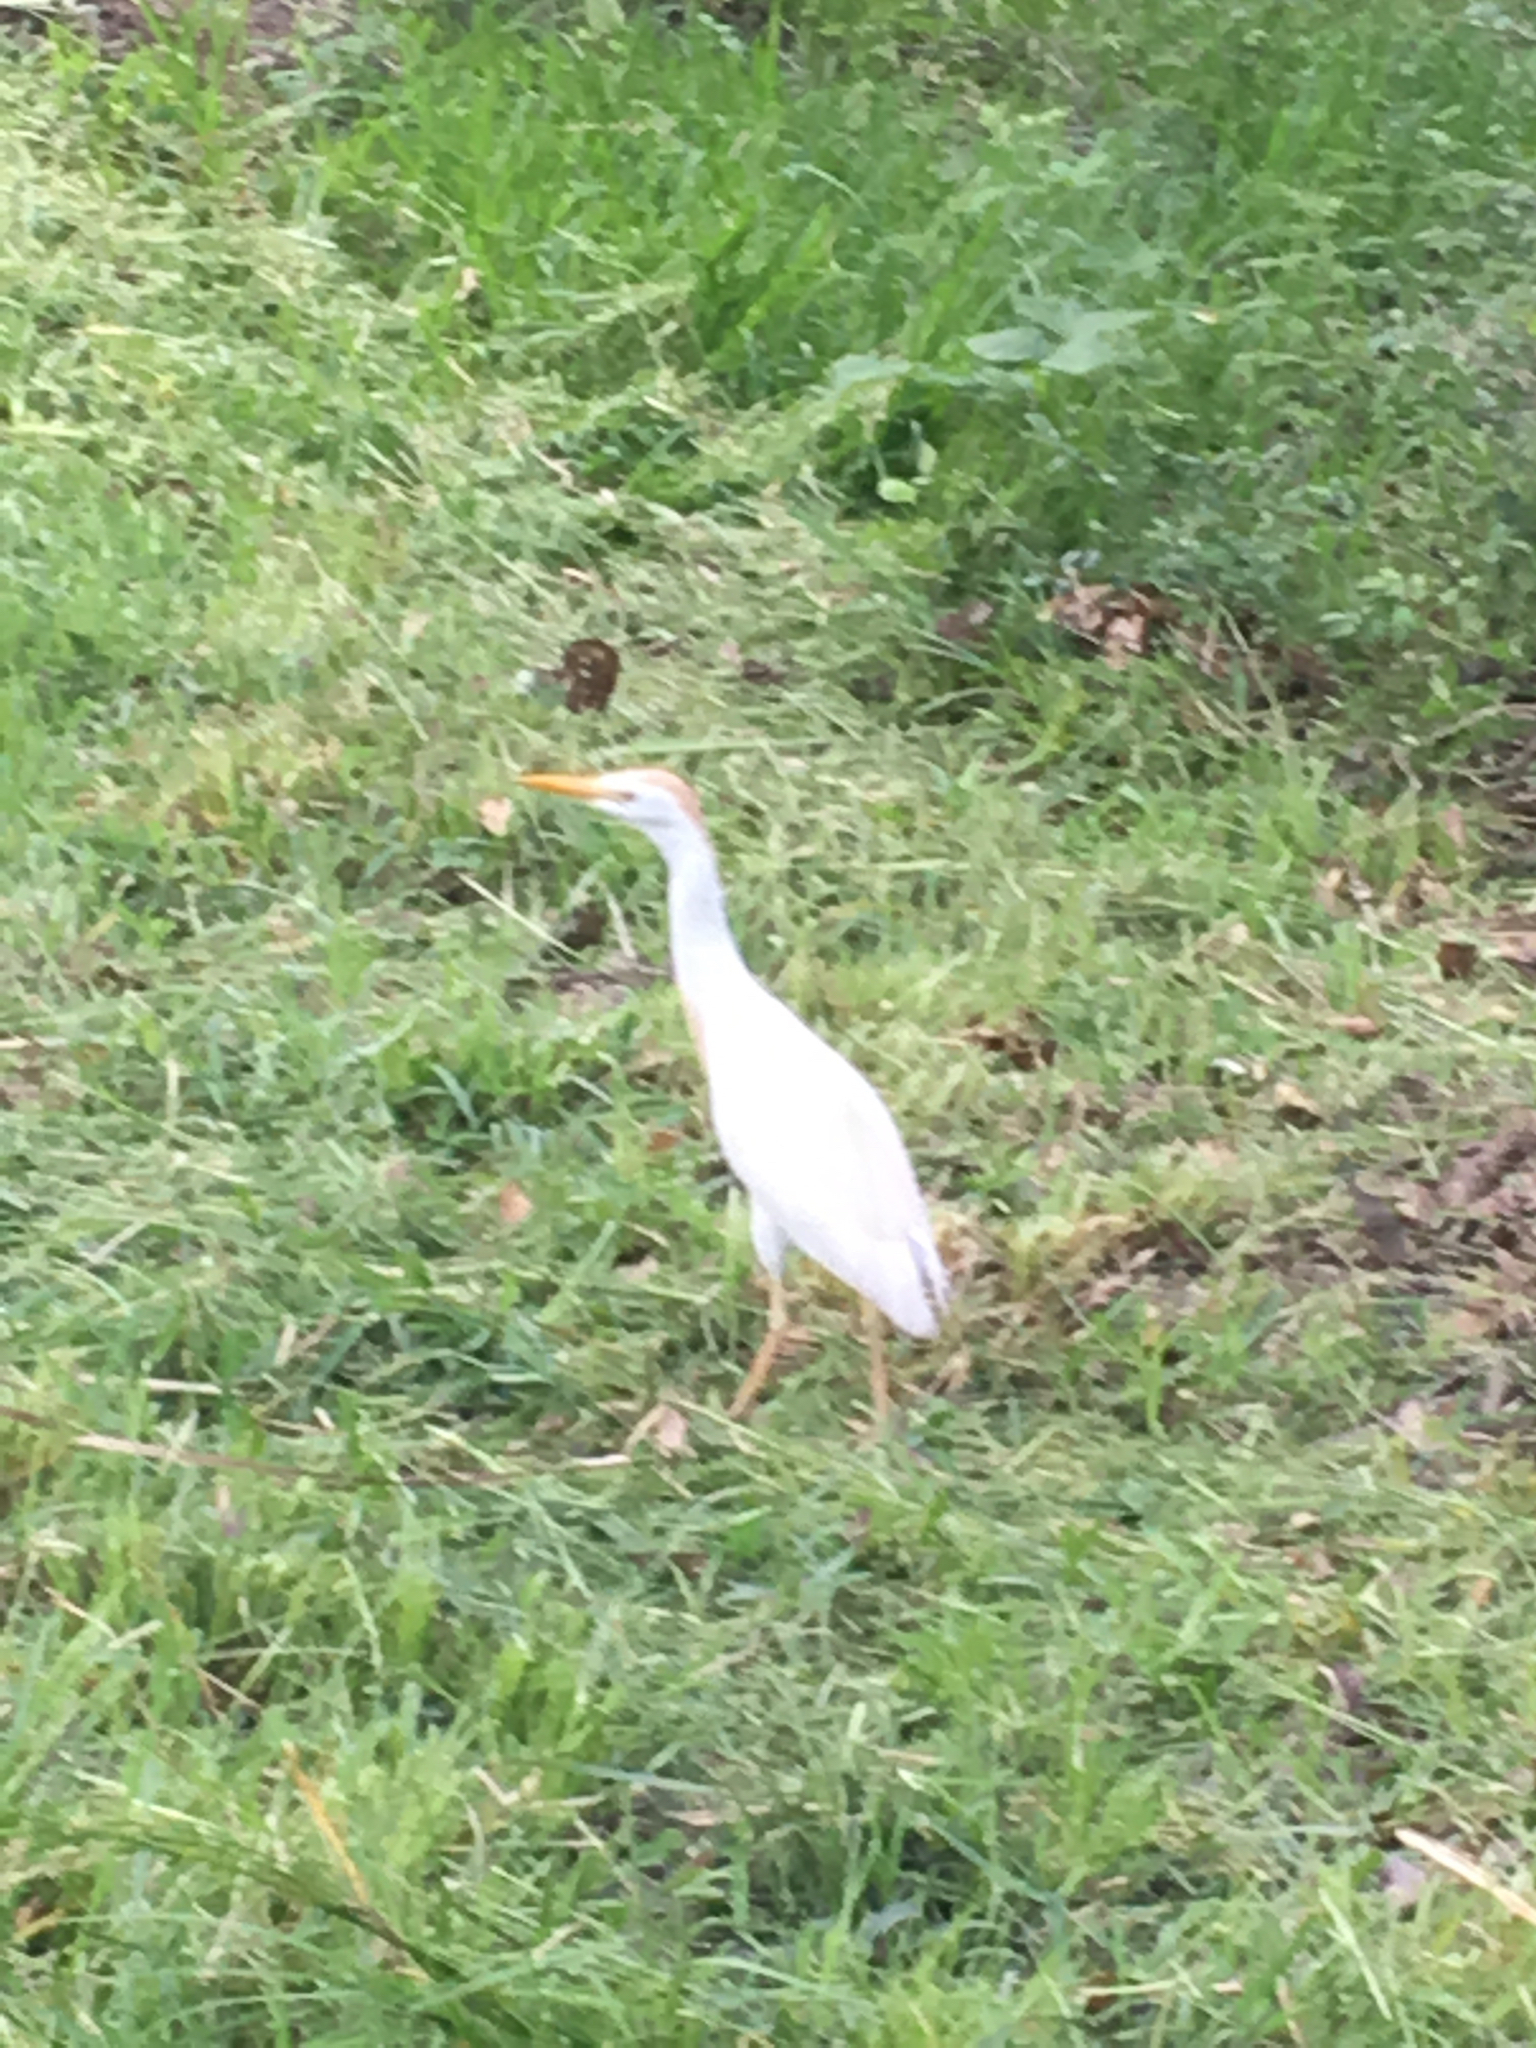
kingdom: Animalia
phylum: Chordata
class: Aves
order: Pelecaniformes
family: Ardeidae
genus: Bubulcus
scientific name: Bubulcus ibis
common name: Cattle egret
